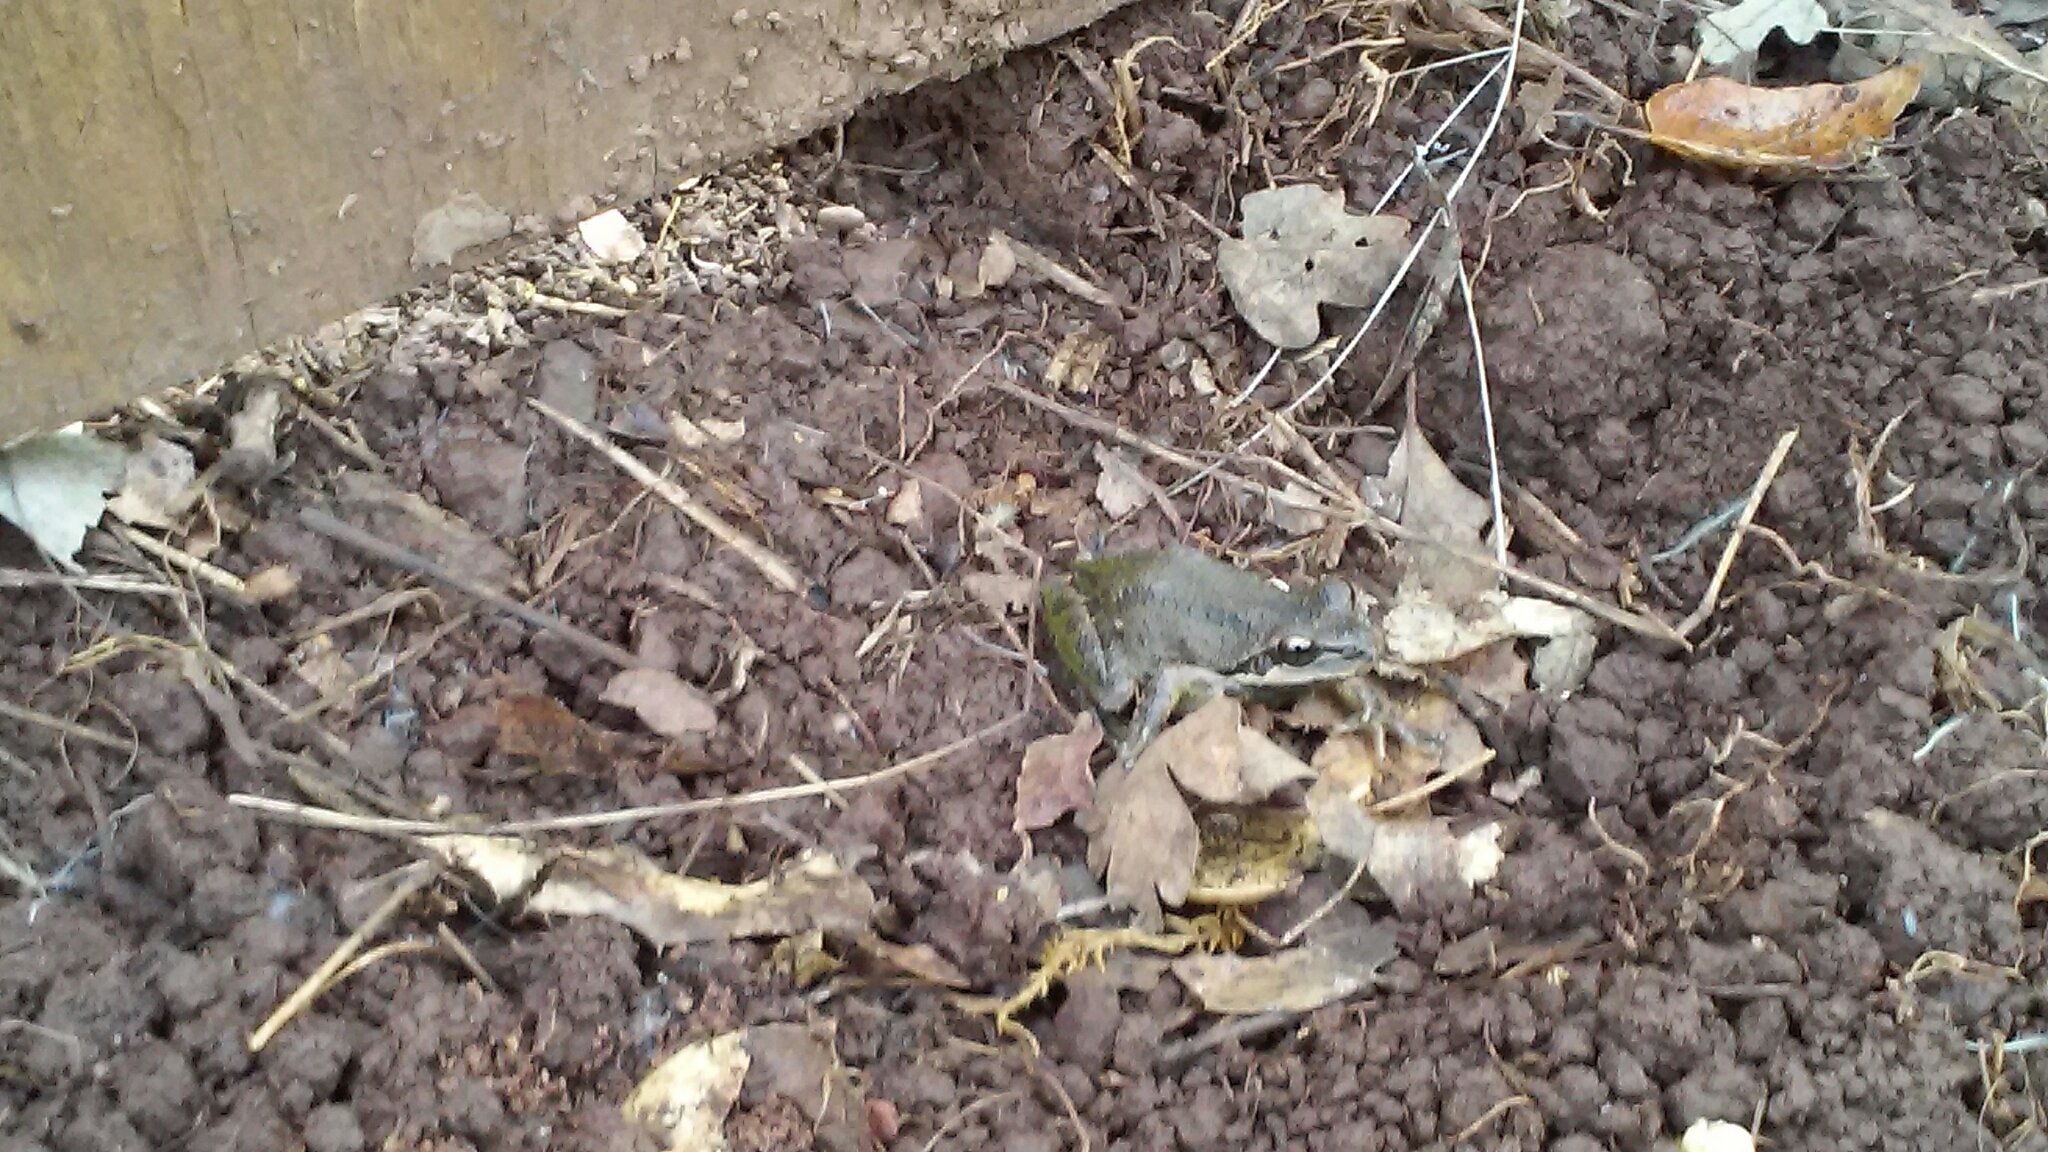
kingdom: Animalia
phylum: Chordata
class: Amphibia
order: Anura
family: Hylidae
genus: Pseudacris
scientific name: Pseudacris regilla
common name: Pacific chorus frog
